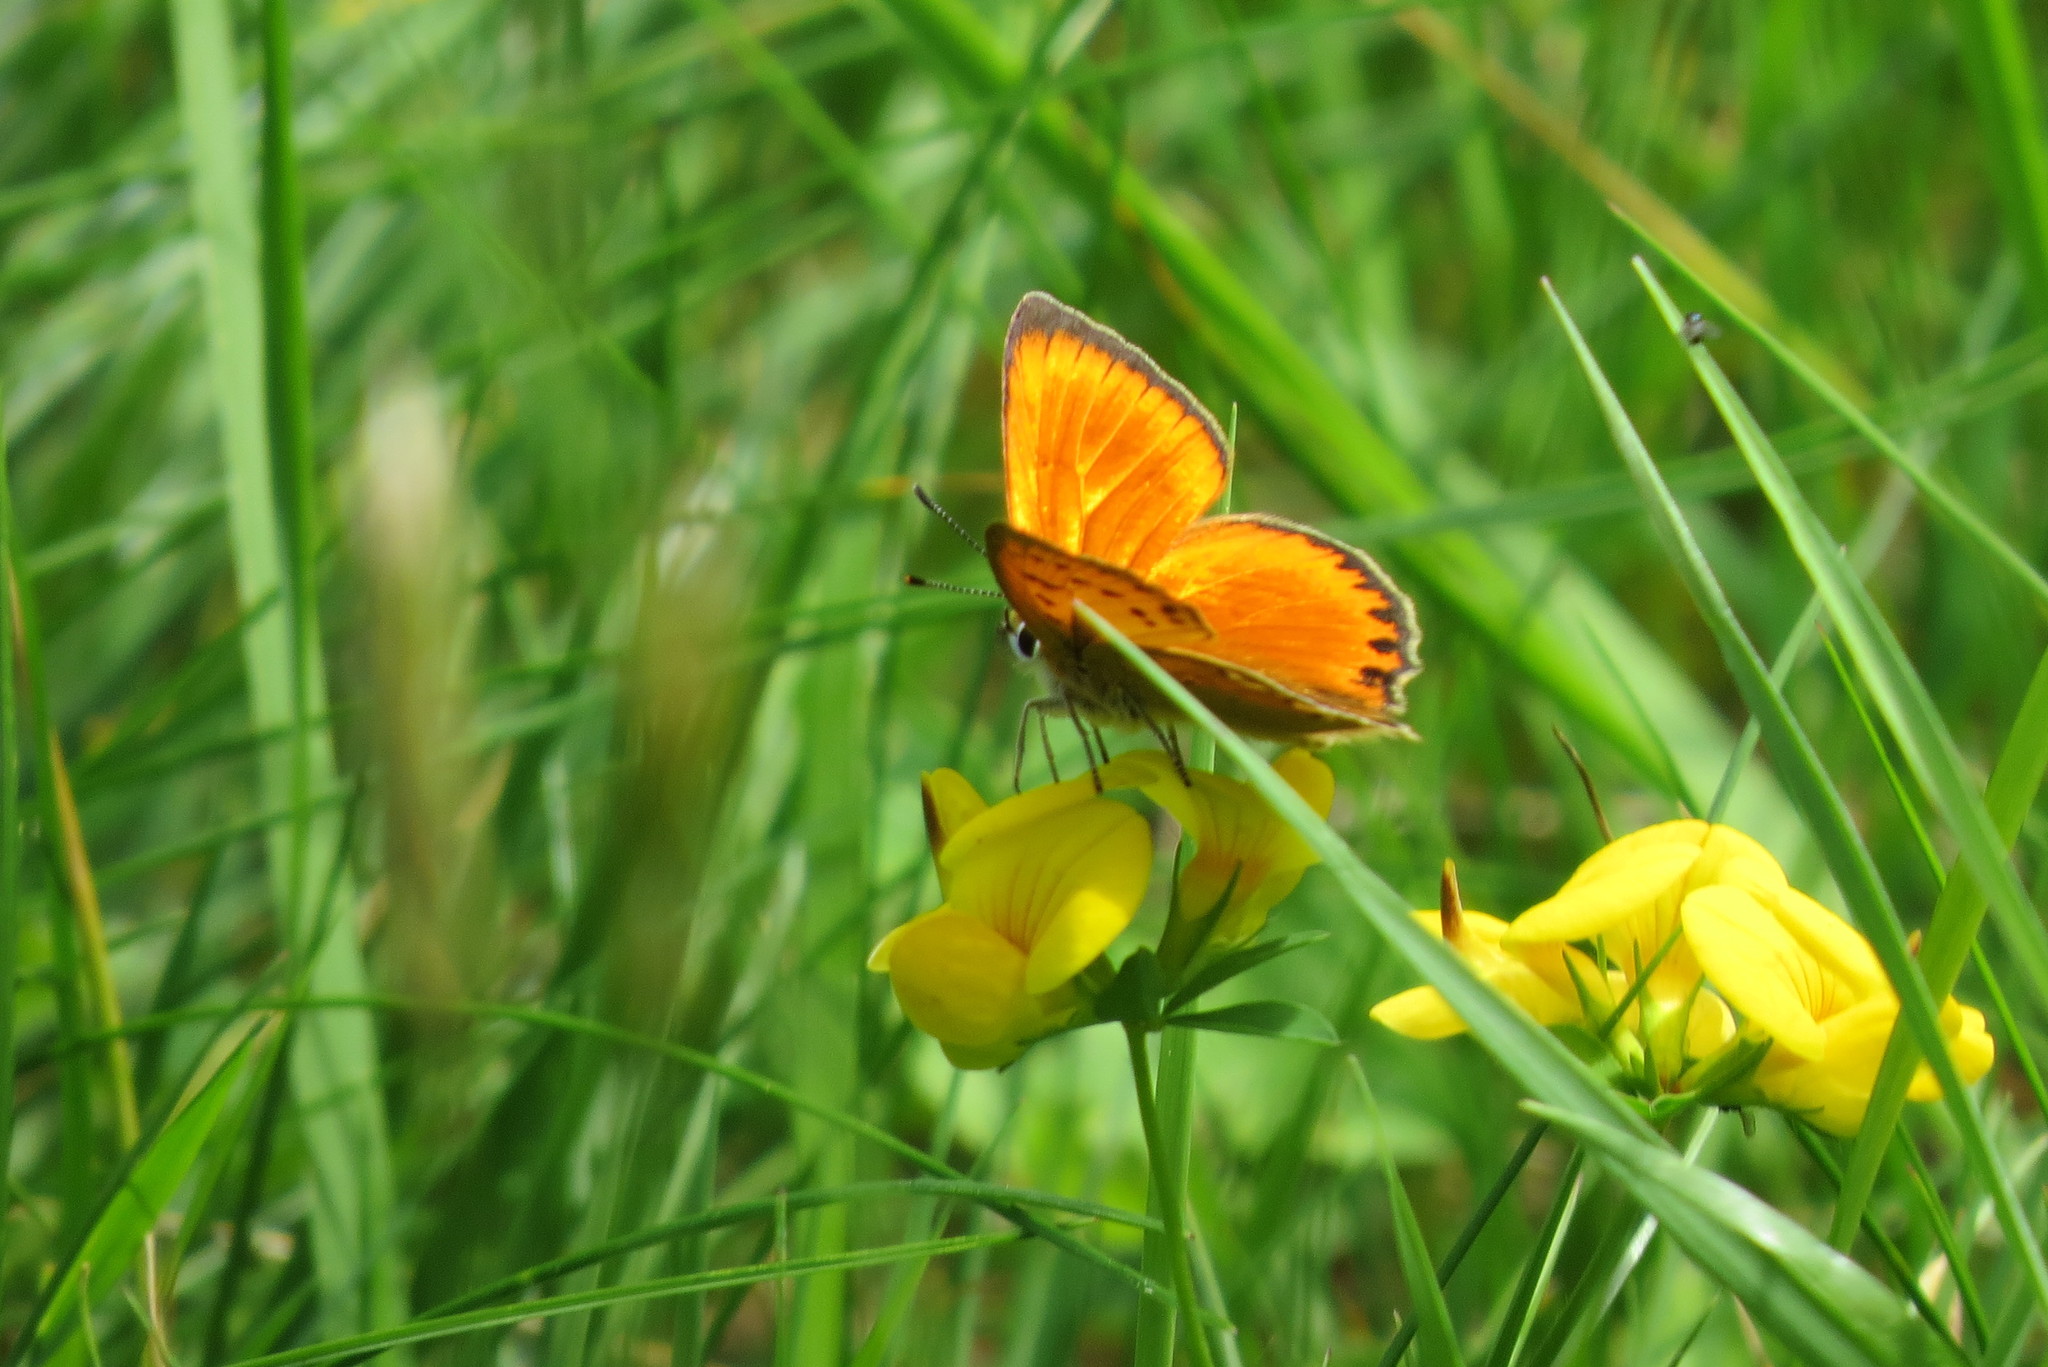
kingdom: Animalia
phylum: Arthropoda
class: Insecta
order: Lepidoptera
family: Lycaenidae
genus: Lycaena
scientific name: Lycaena virgaureae
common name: Scarce copper
